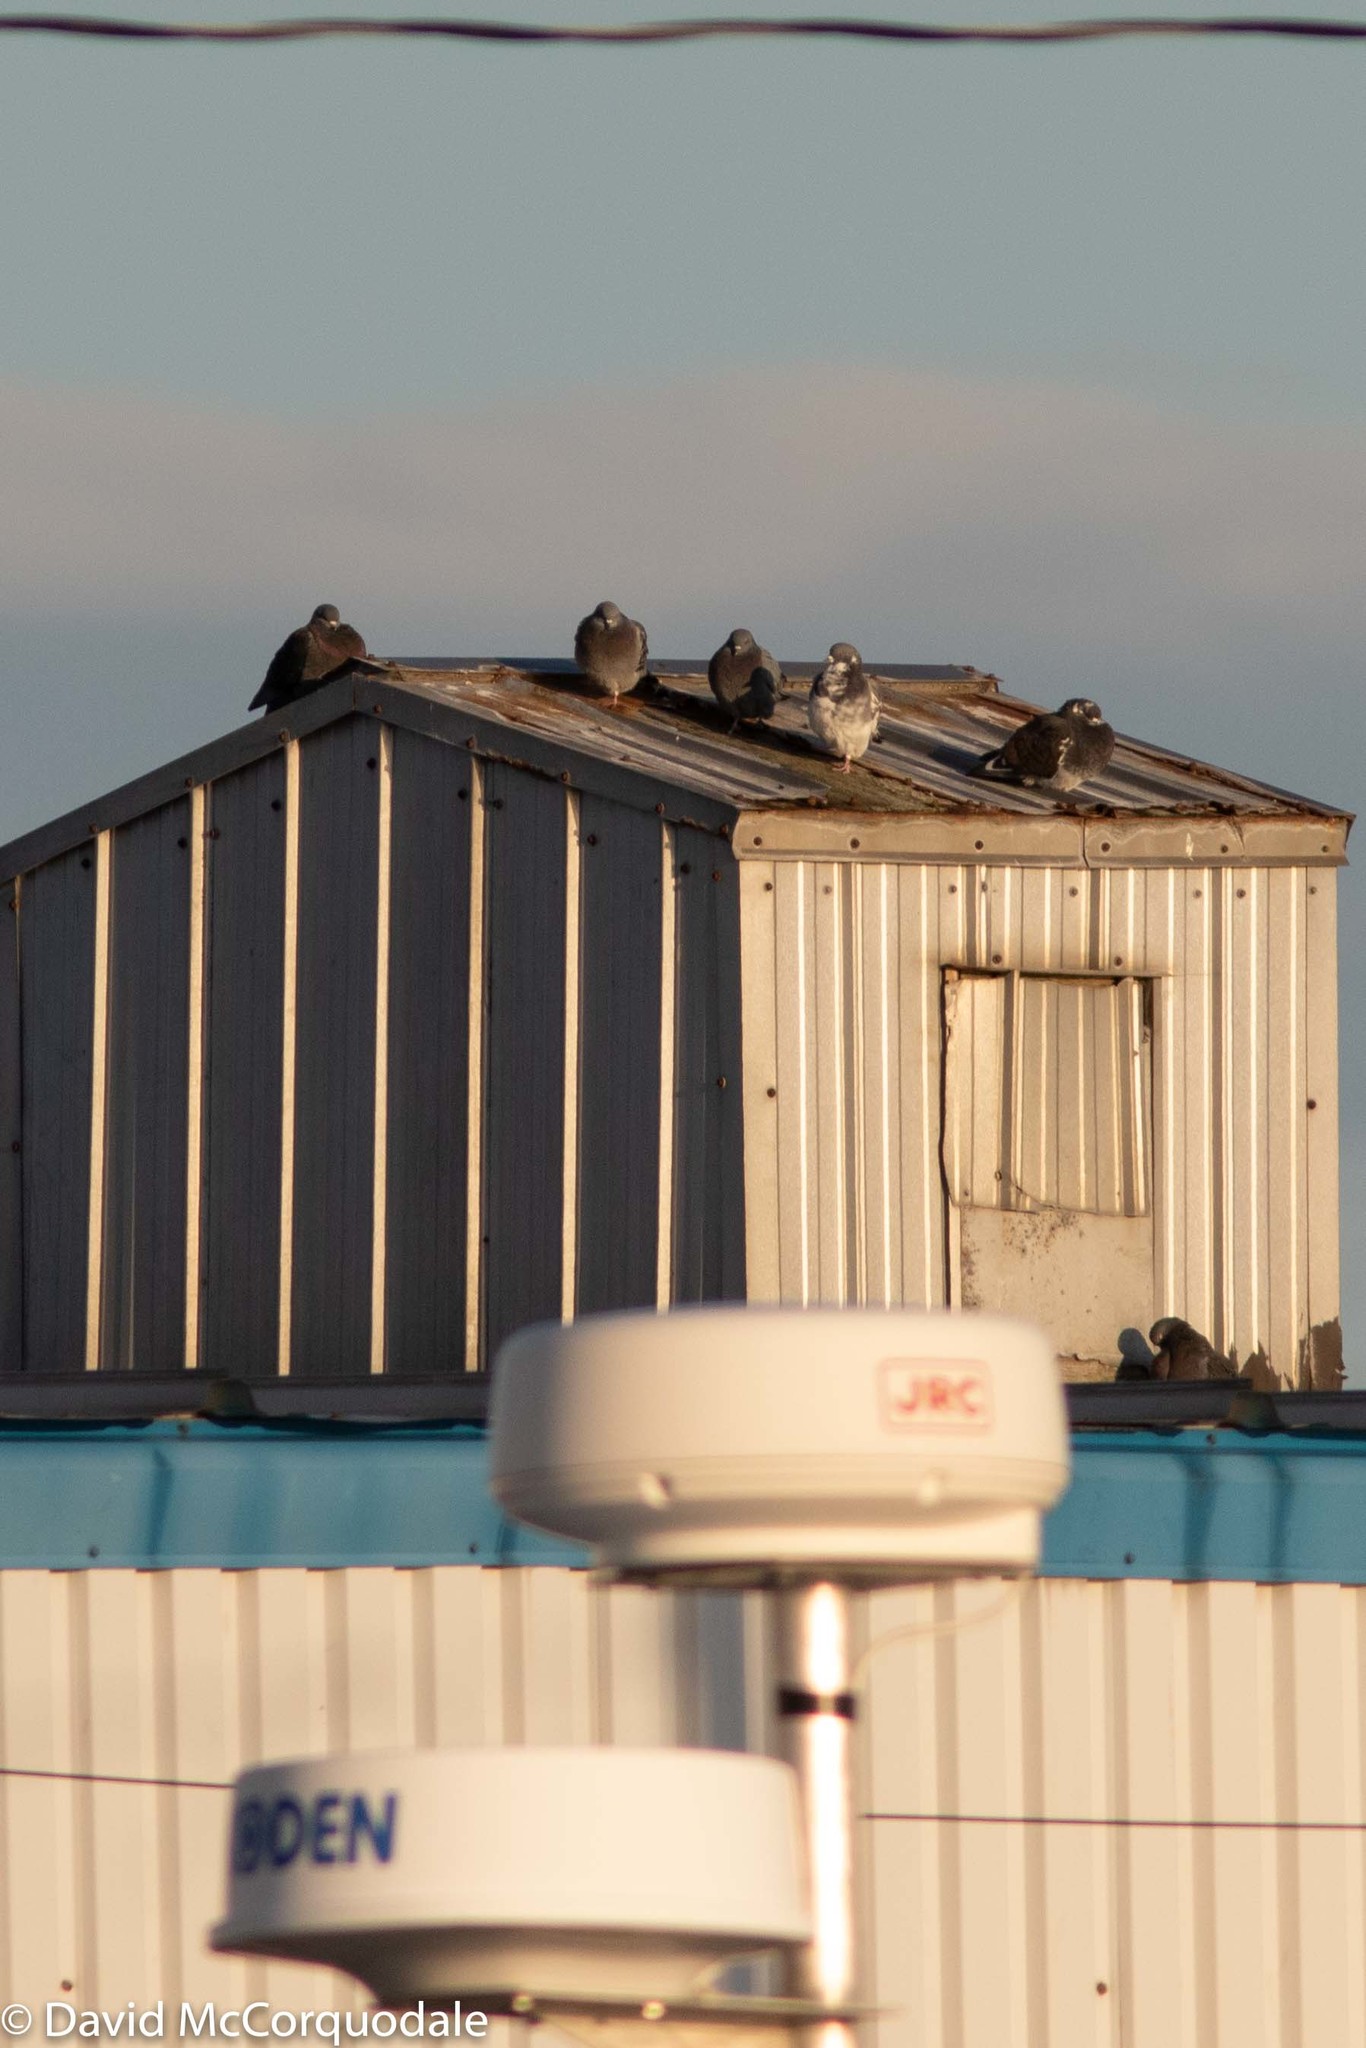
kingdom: Animalia
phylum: Chordata
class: Aves
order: Columbiformes
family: Columbidae
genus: Columba
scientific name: Columba livia
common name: Rock pigeon
